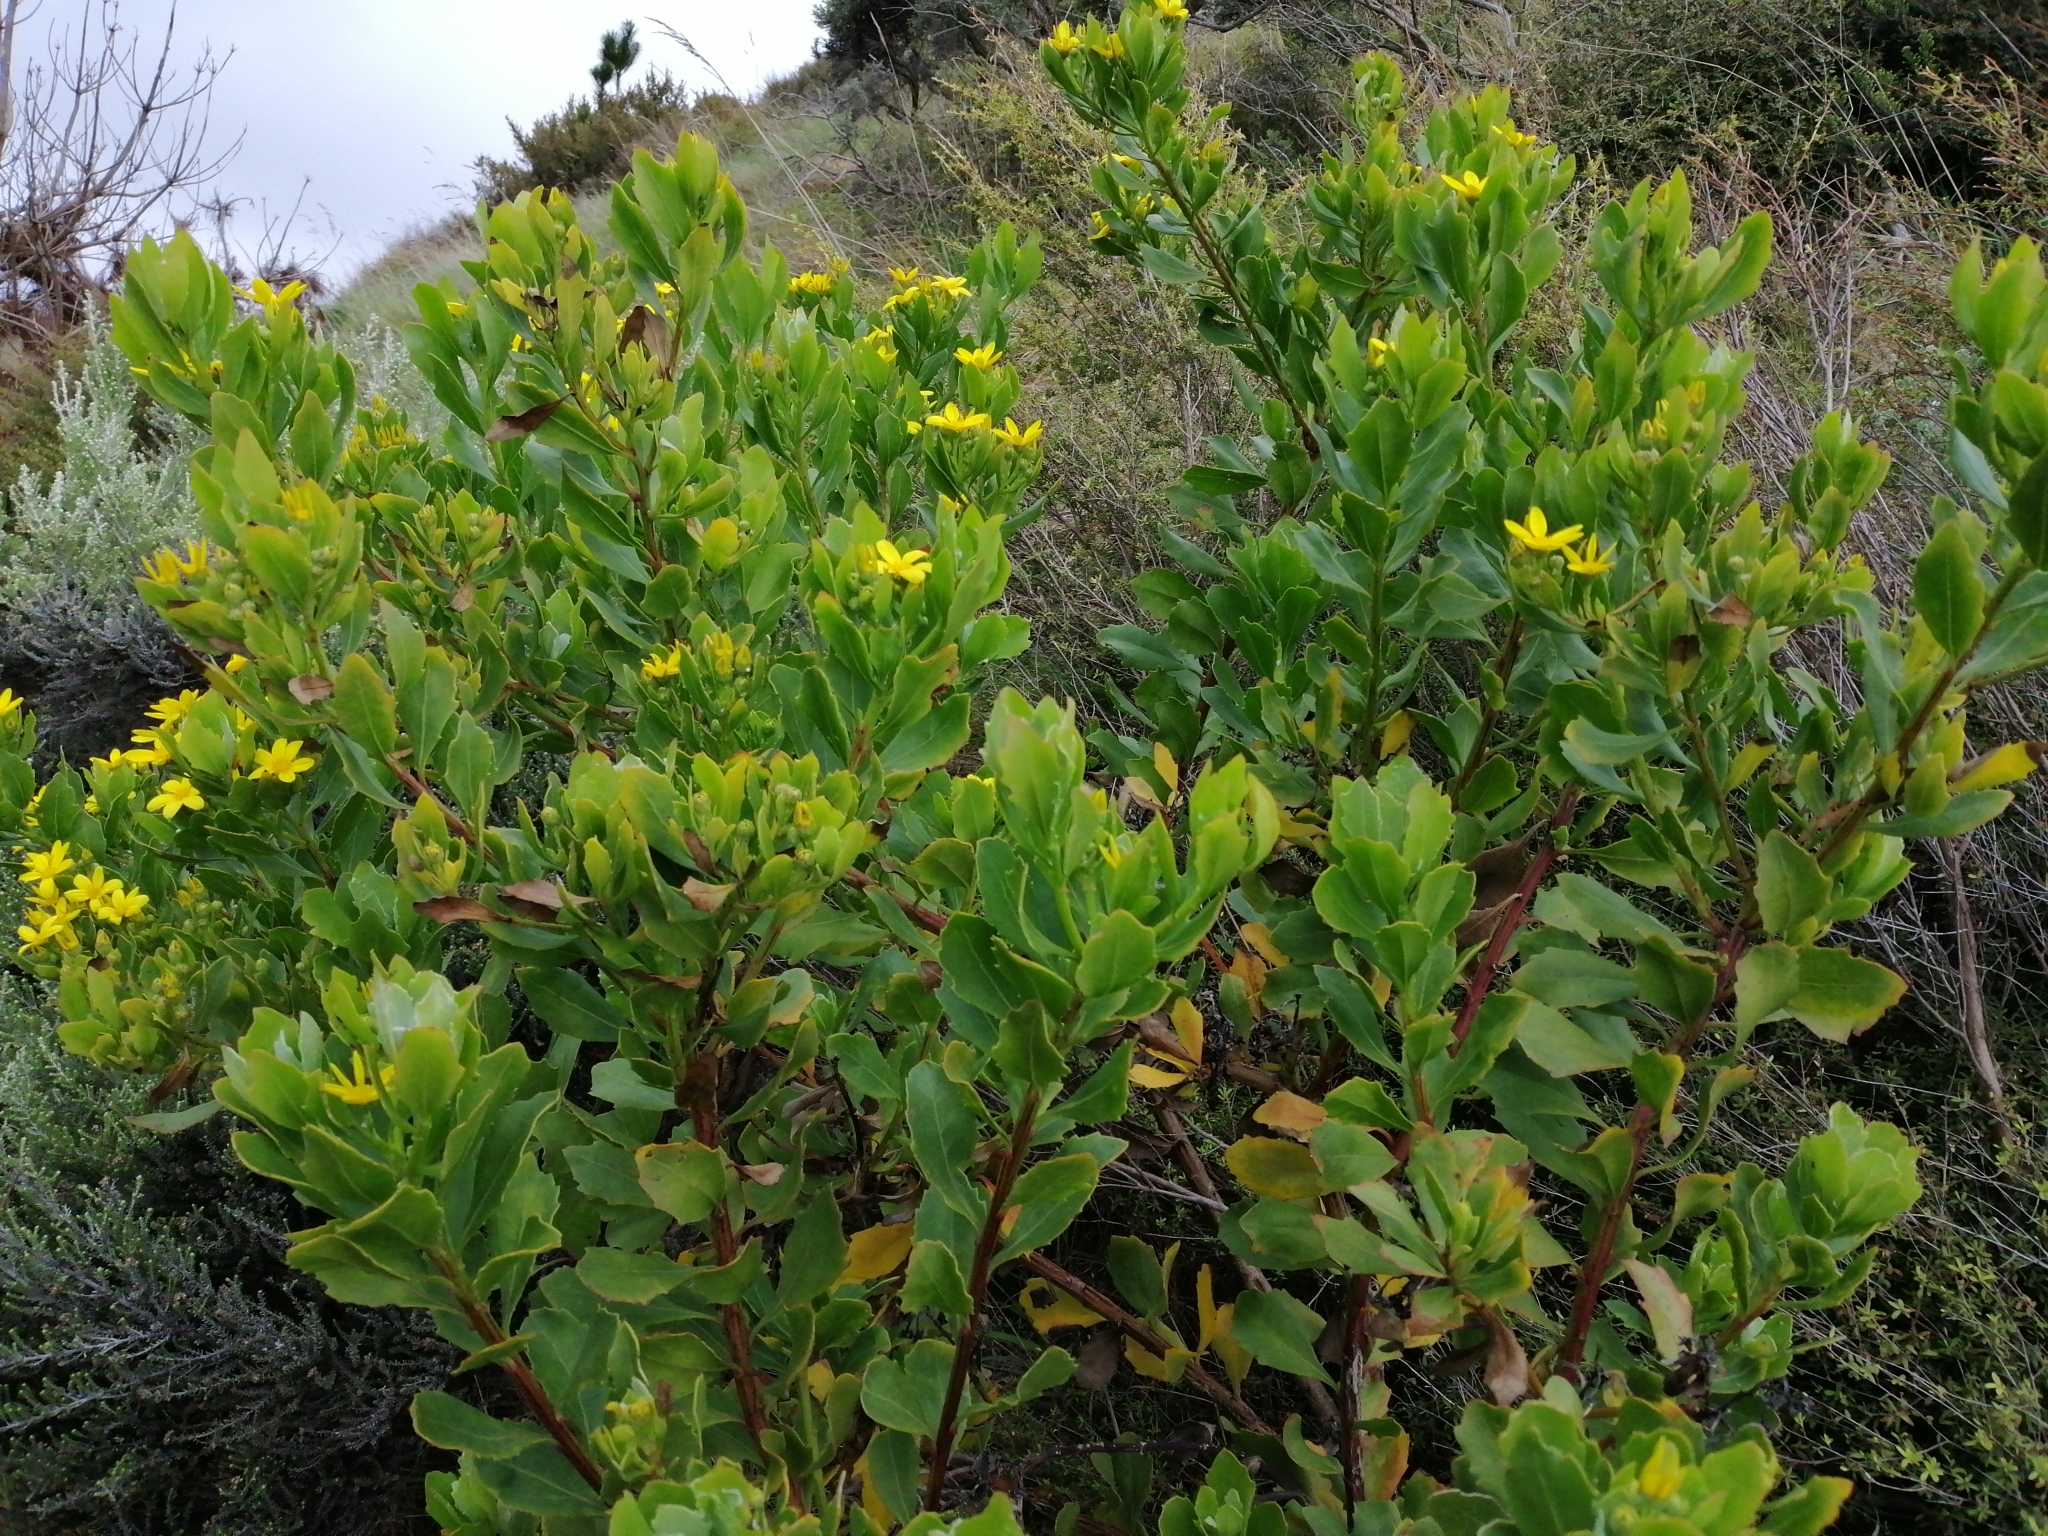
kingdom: Plantae
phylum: Tracheophyta
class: Magnoliopsida
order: Asterales
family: Asteraceae
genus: Osteospermum
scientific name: Osteospermum moniliferum
